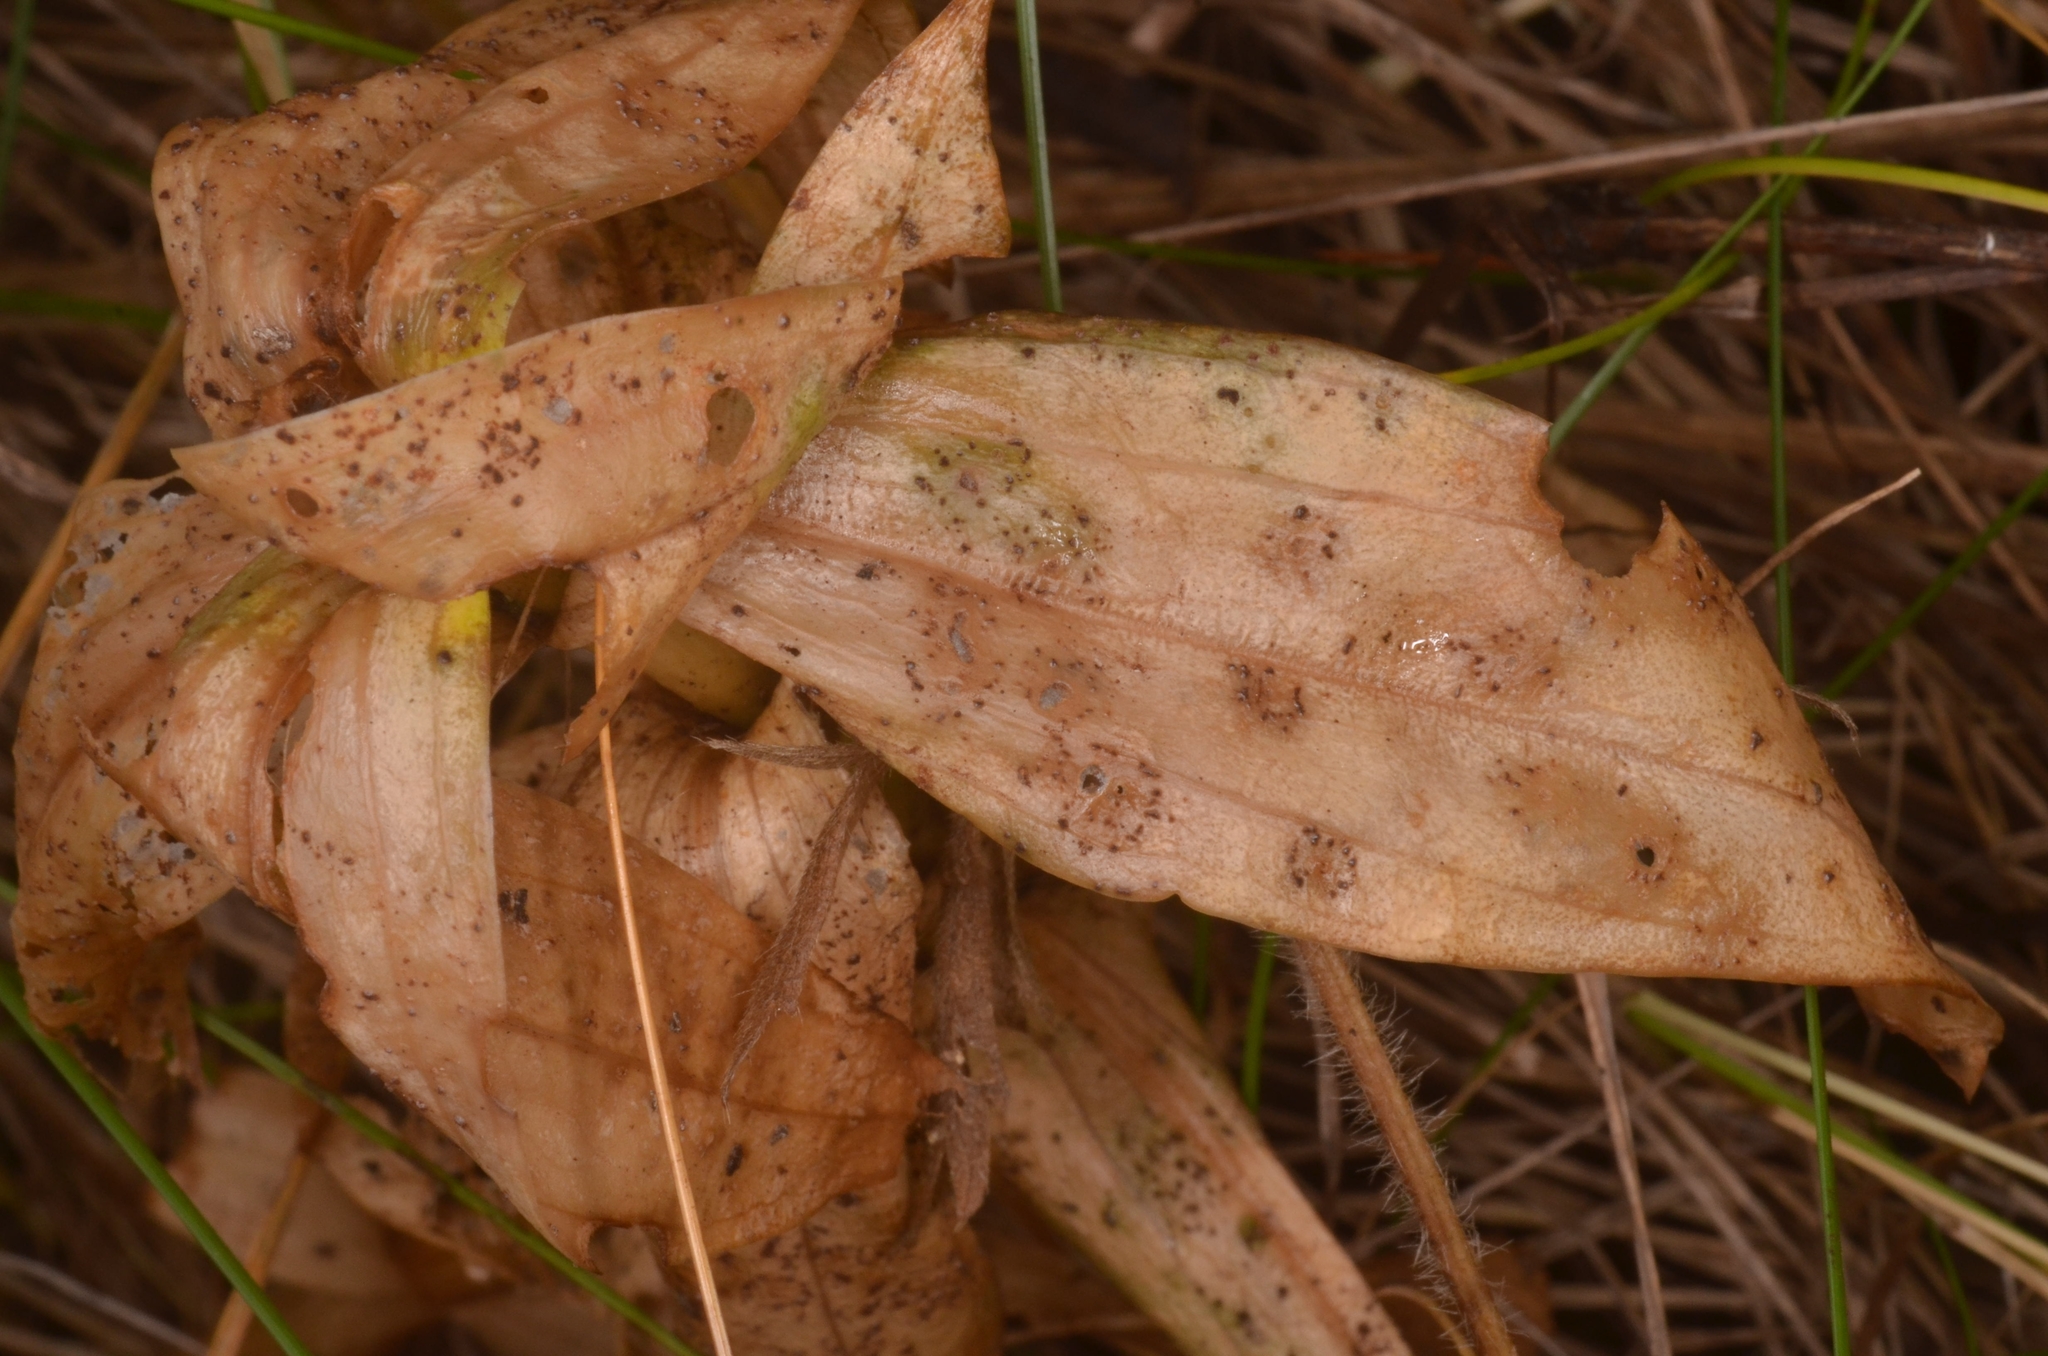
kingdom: Fungi
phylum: Basidiomycota
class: Pucciniomycetes
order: Pucciniales
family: Pucciniaceae
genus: Puccinia
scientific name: Puccinia gentianae
